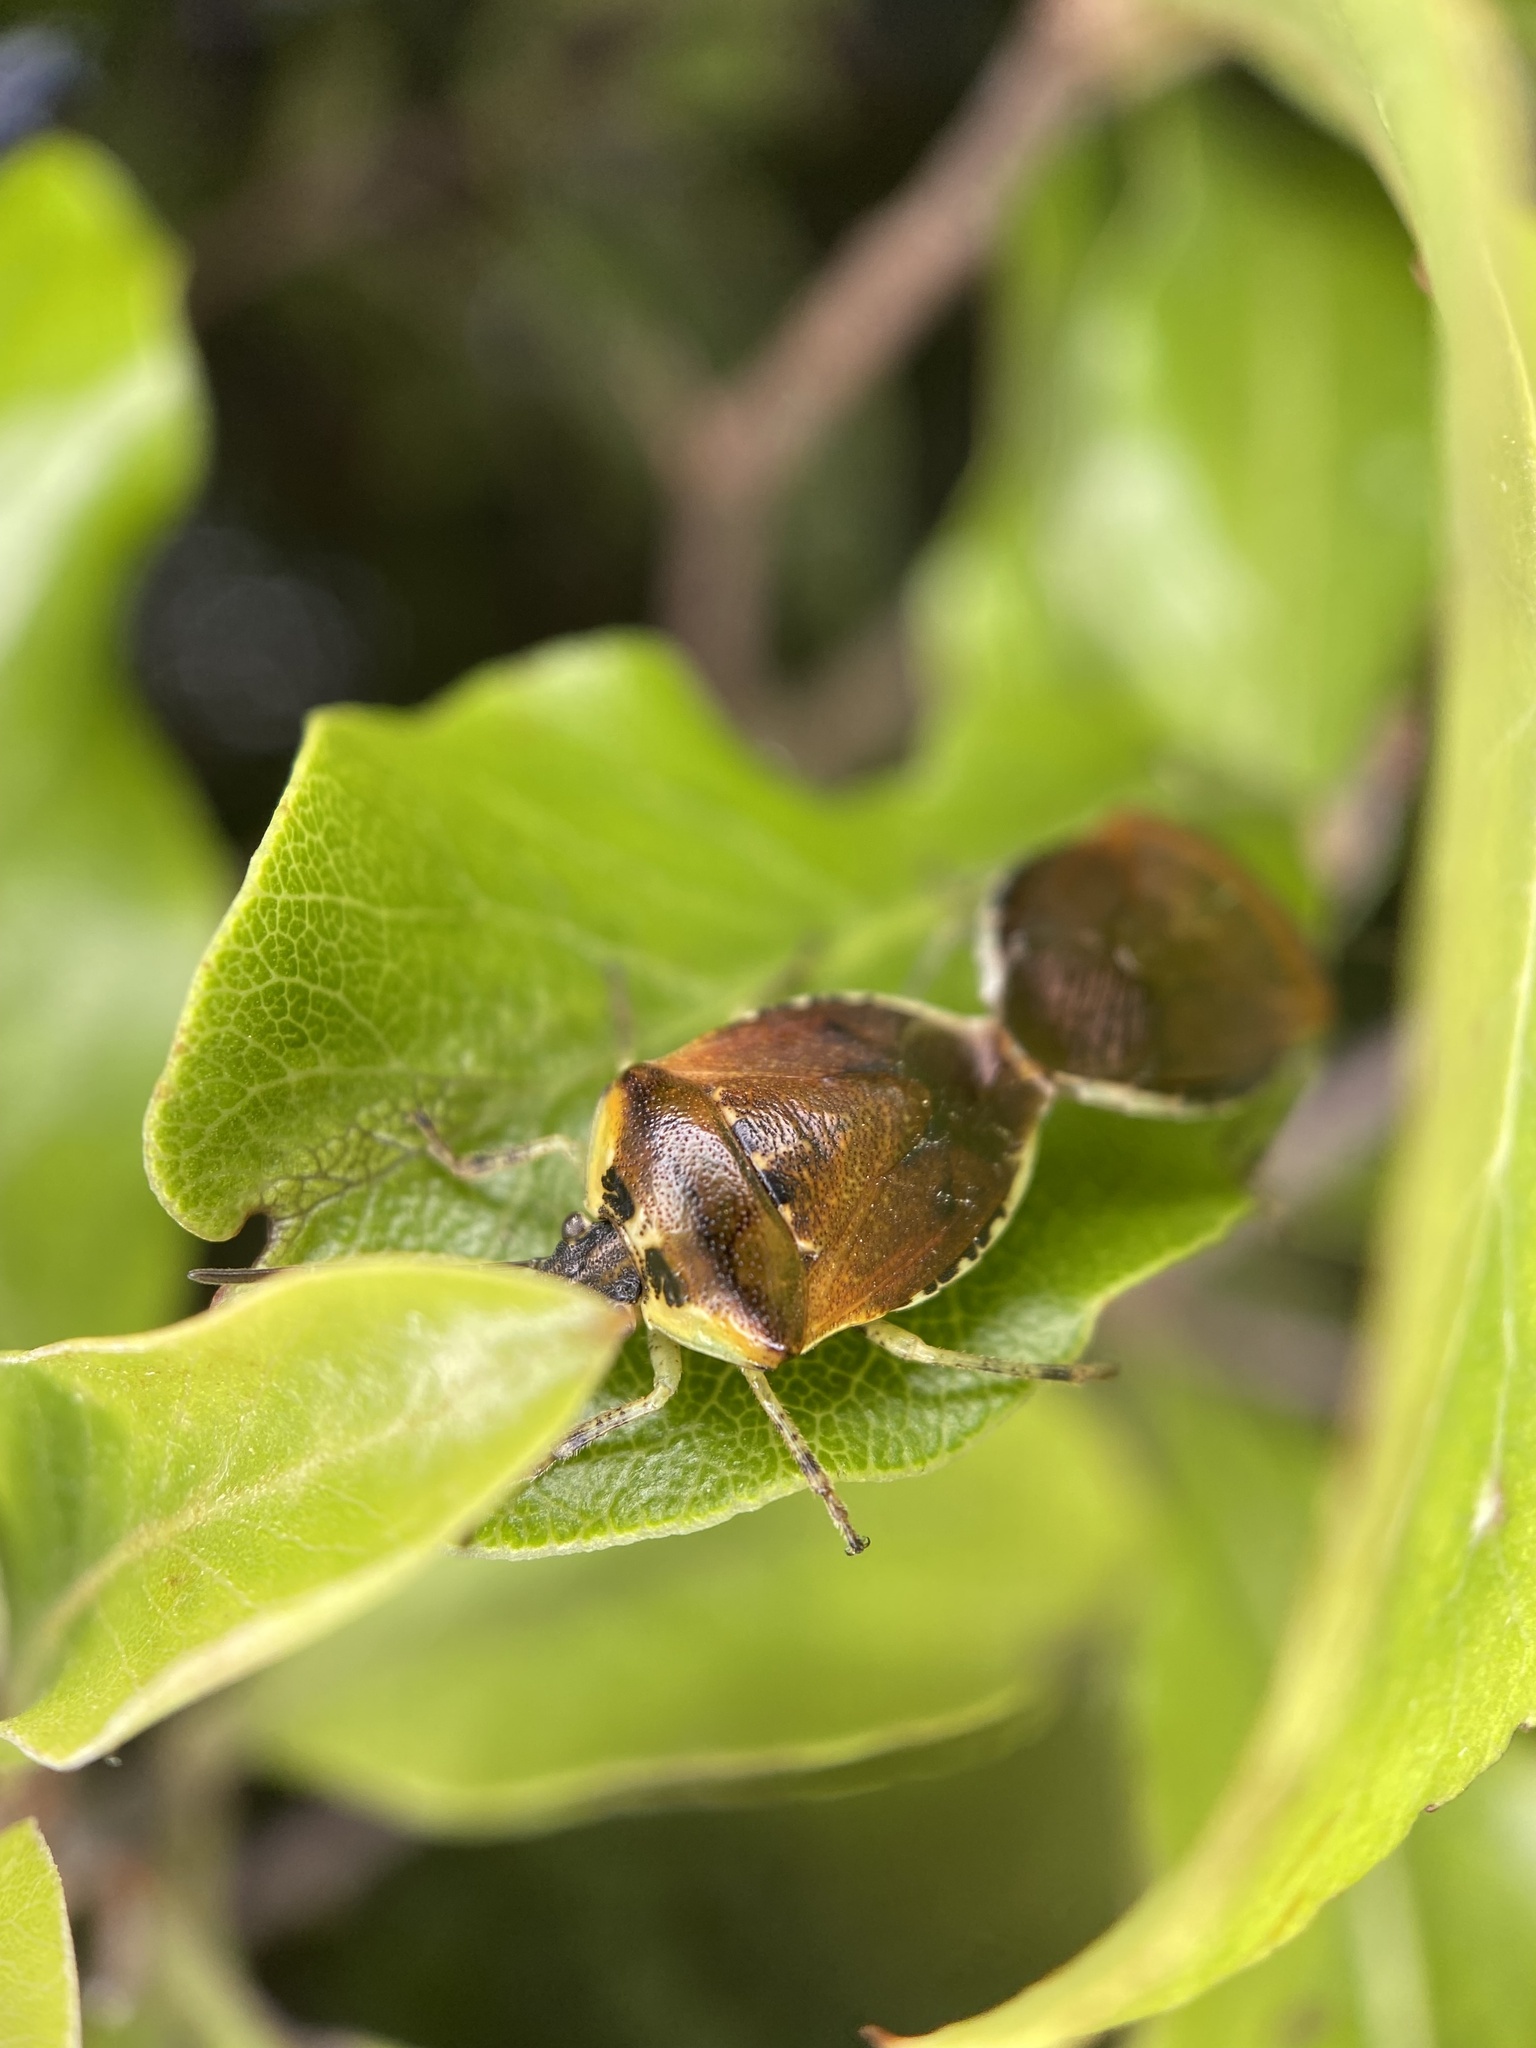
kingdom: Animalia
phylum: Arthropoda
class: Insecta
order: Hemiptera
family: Pentatomidae
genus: Monteithiella
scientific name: Monteithiella
